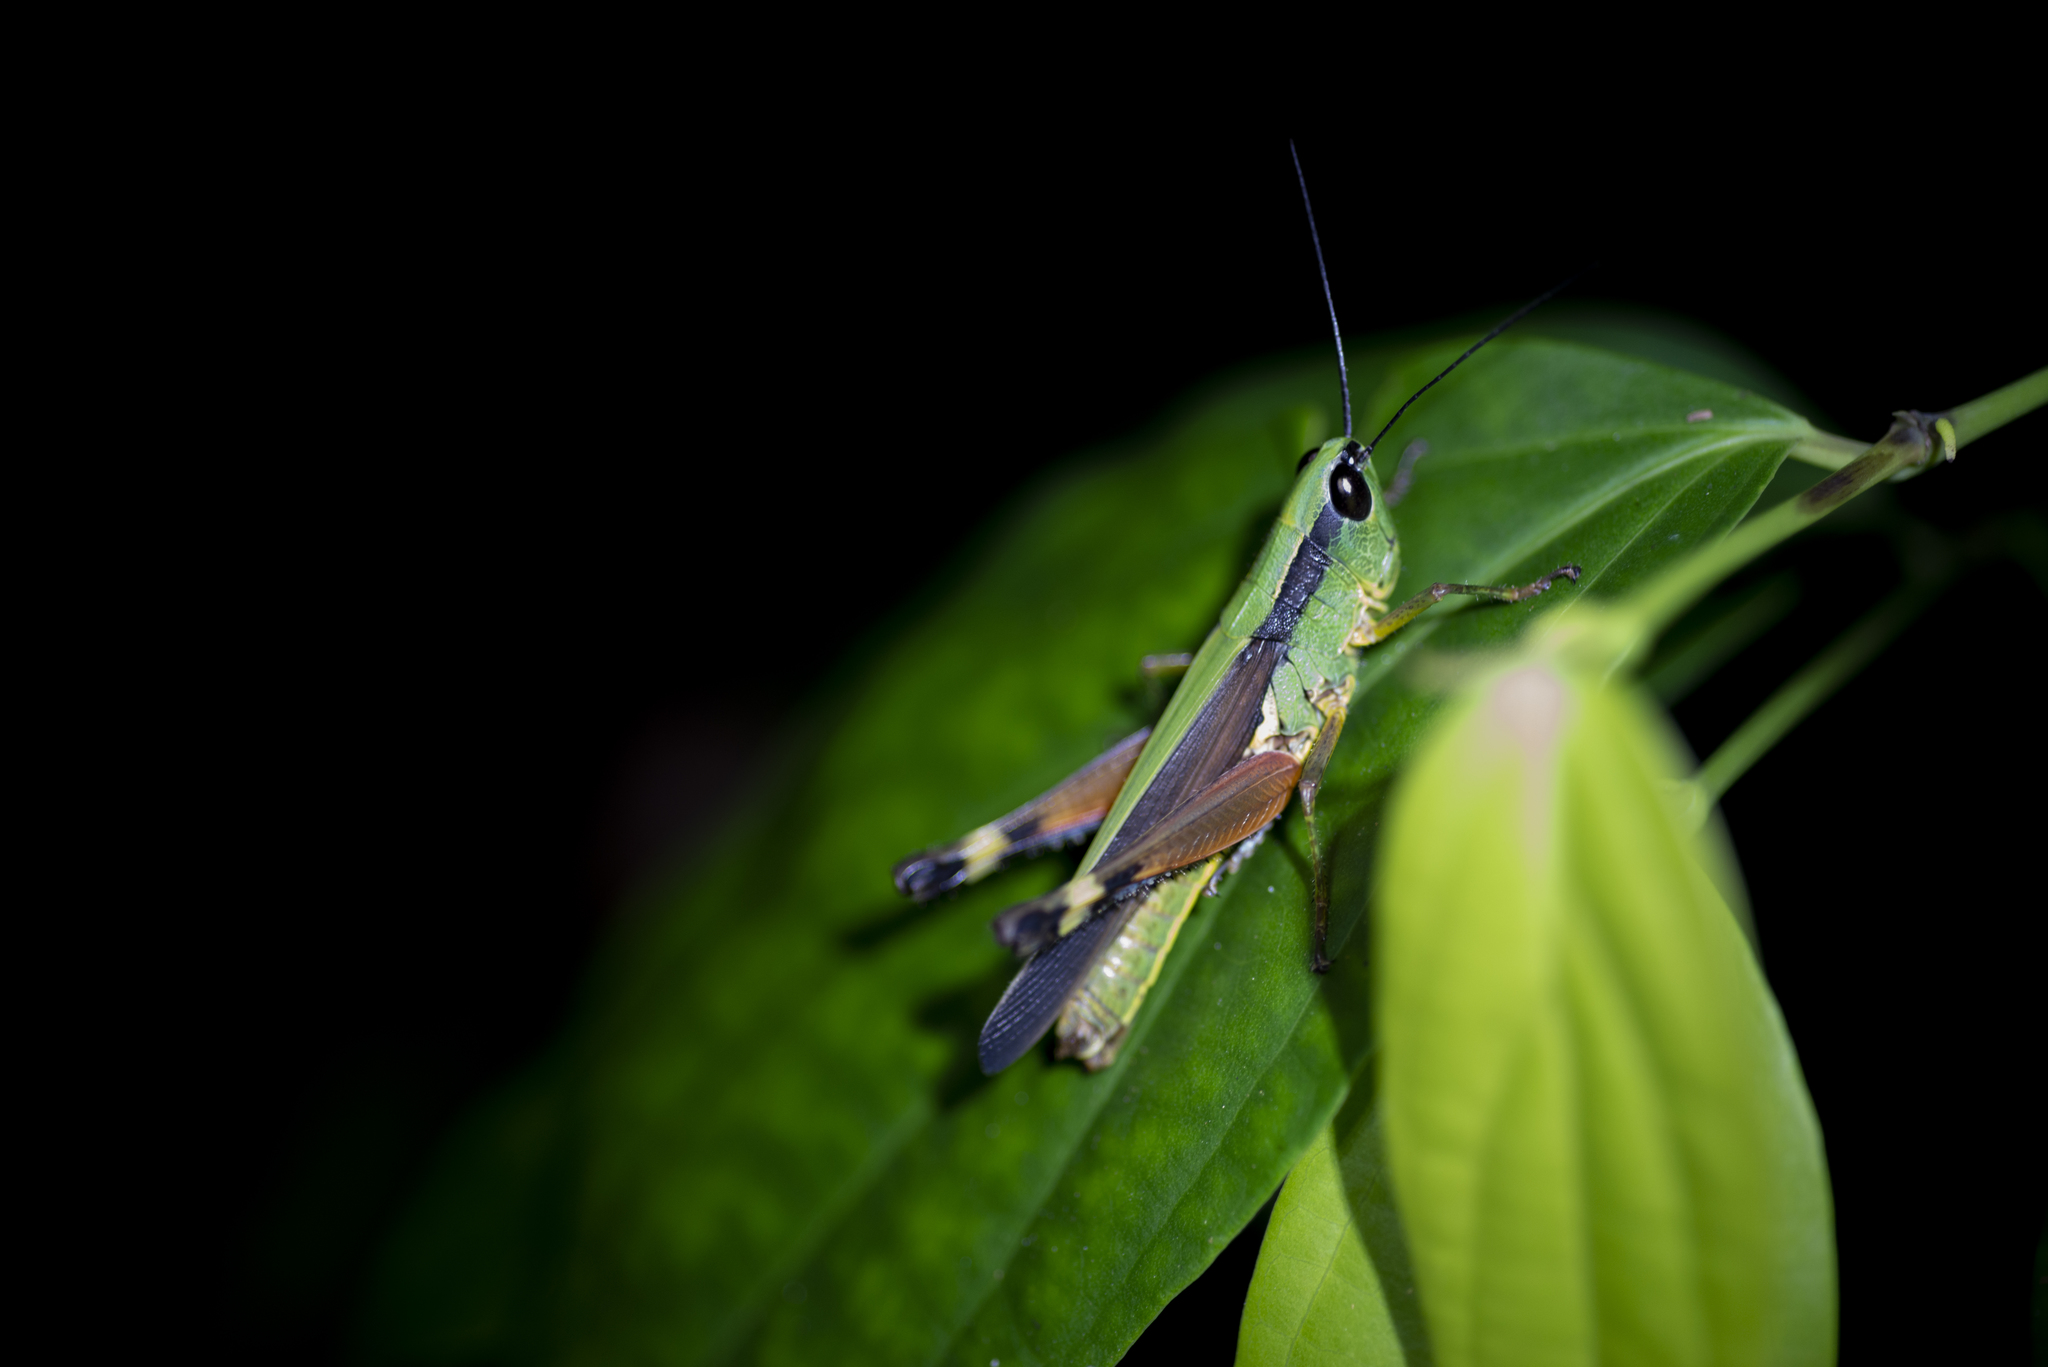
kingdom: Animalia
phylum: Arthropoda
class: Insecta
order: Orthoptera
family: Acrididae
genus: Ceracris
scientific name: Ceracris nigricornis
